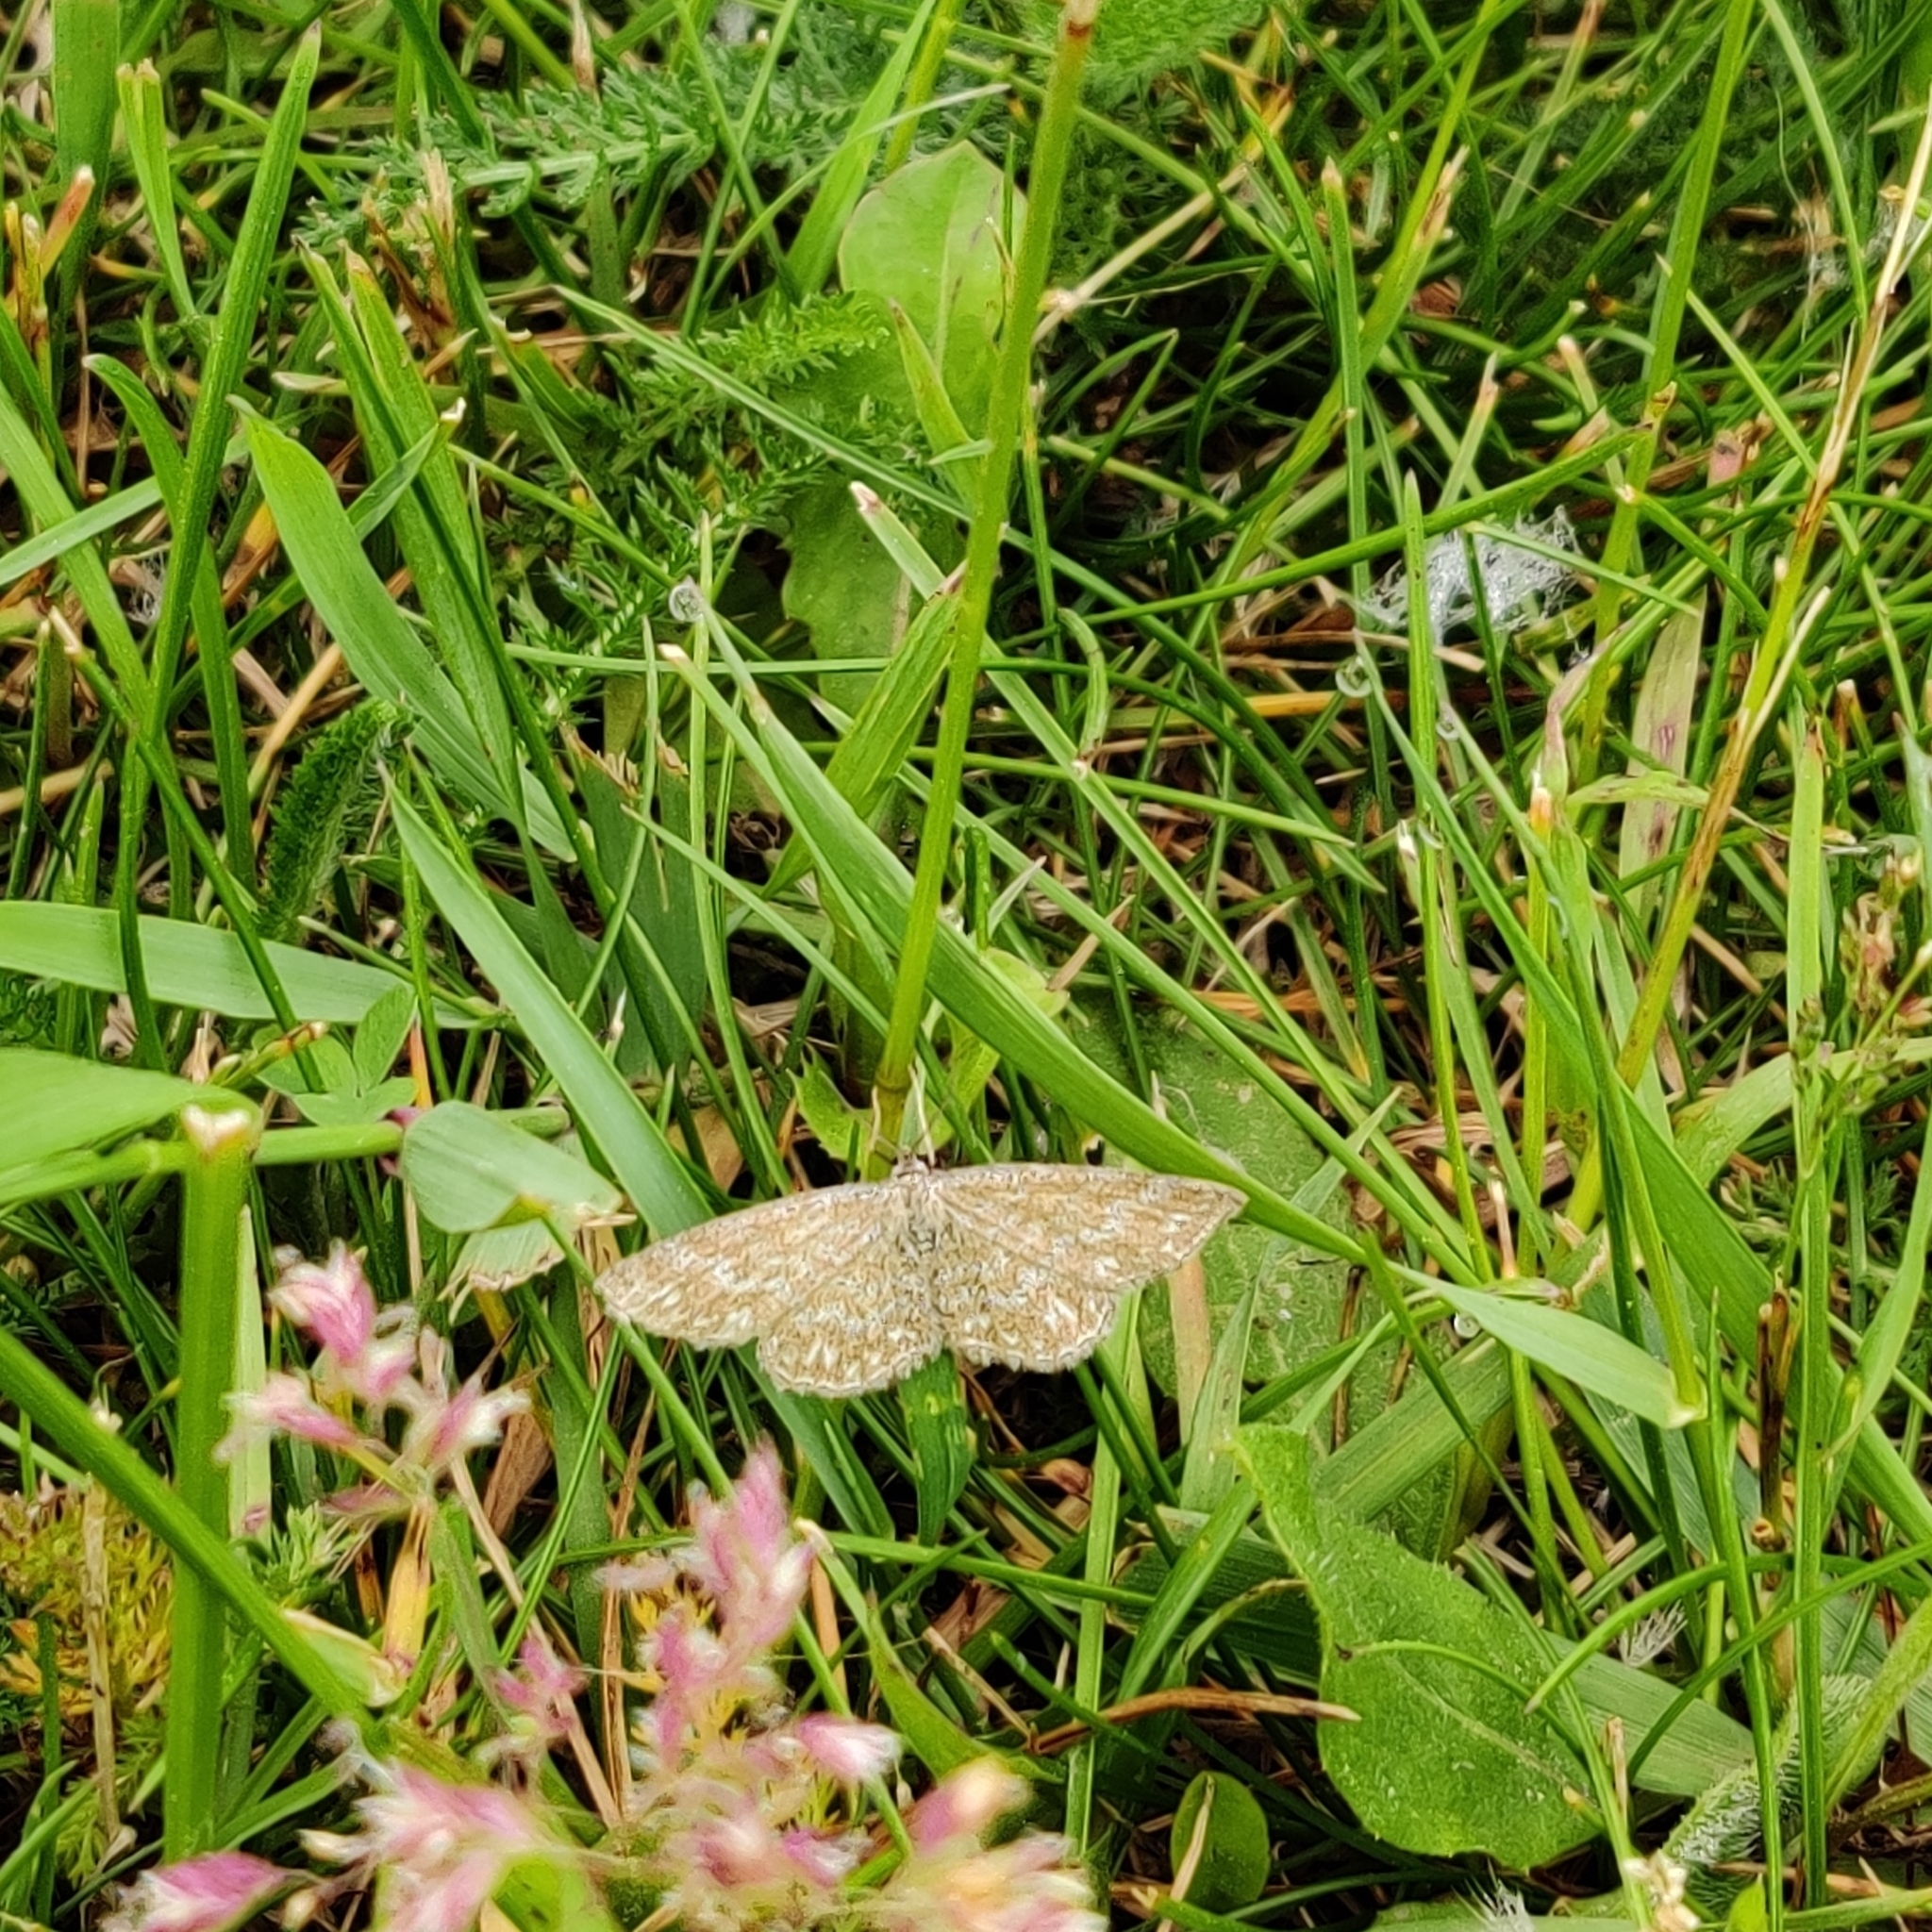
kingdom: Animalia
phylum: Arthropoda
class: Insecta
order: Lepidoptera
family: Geometridae
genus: Scopula
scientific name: Scopula immorata
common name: Lewes wave
